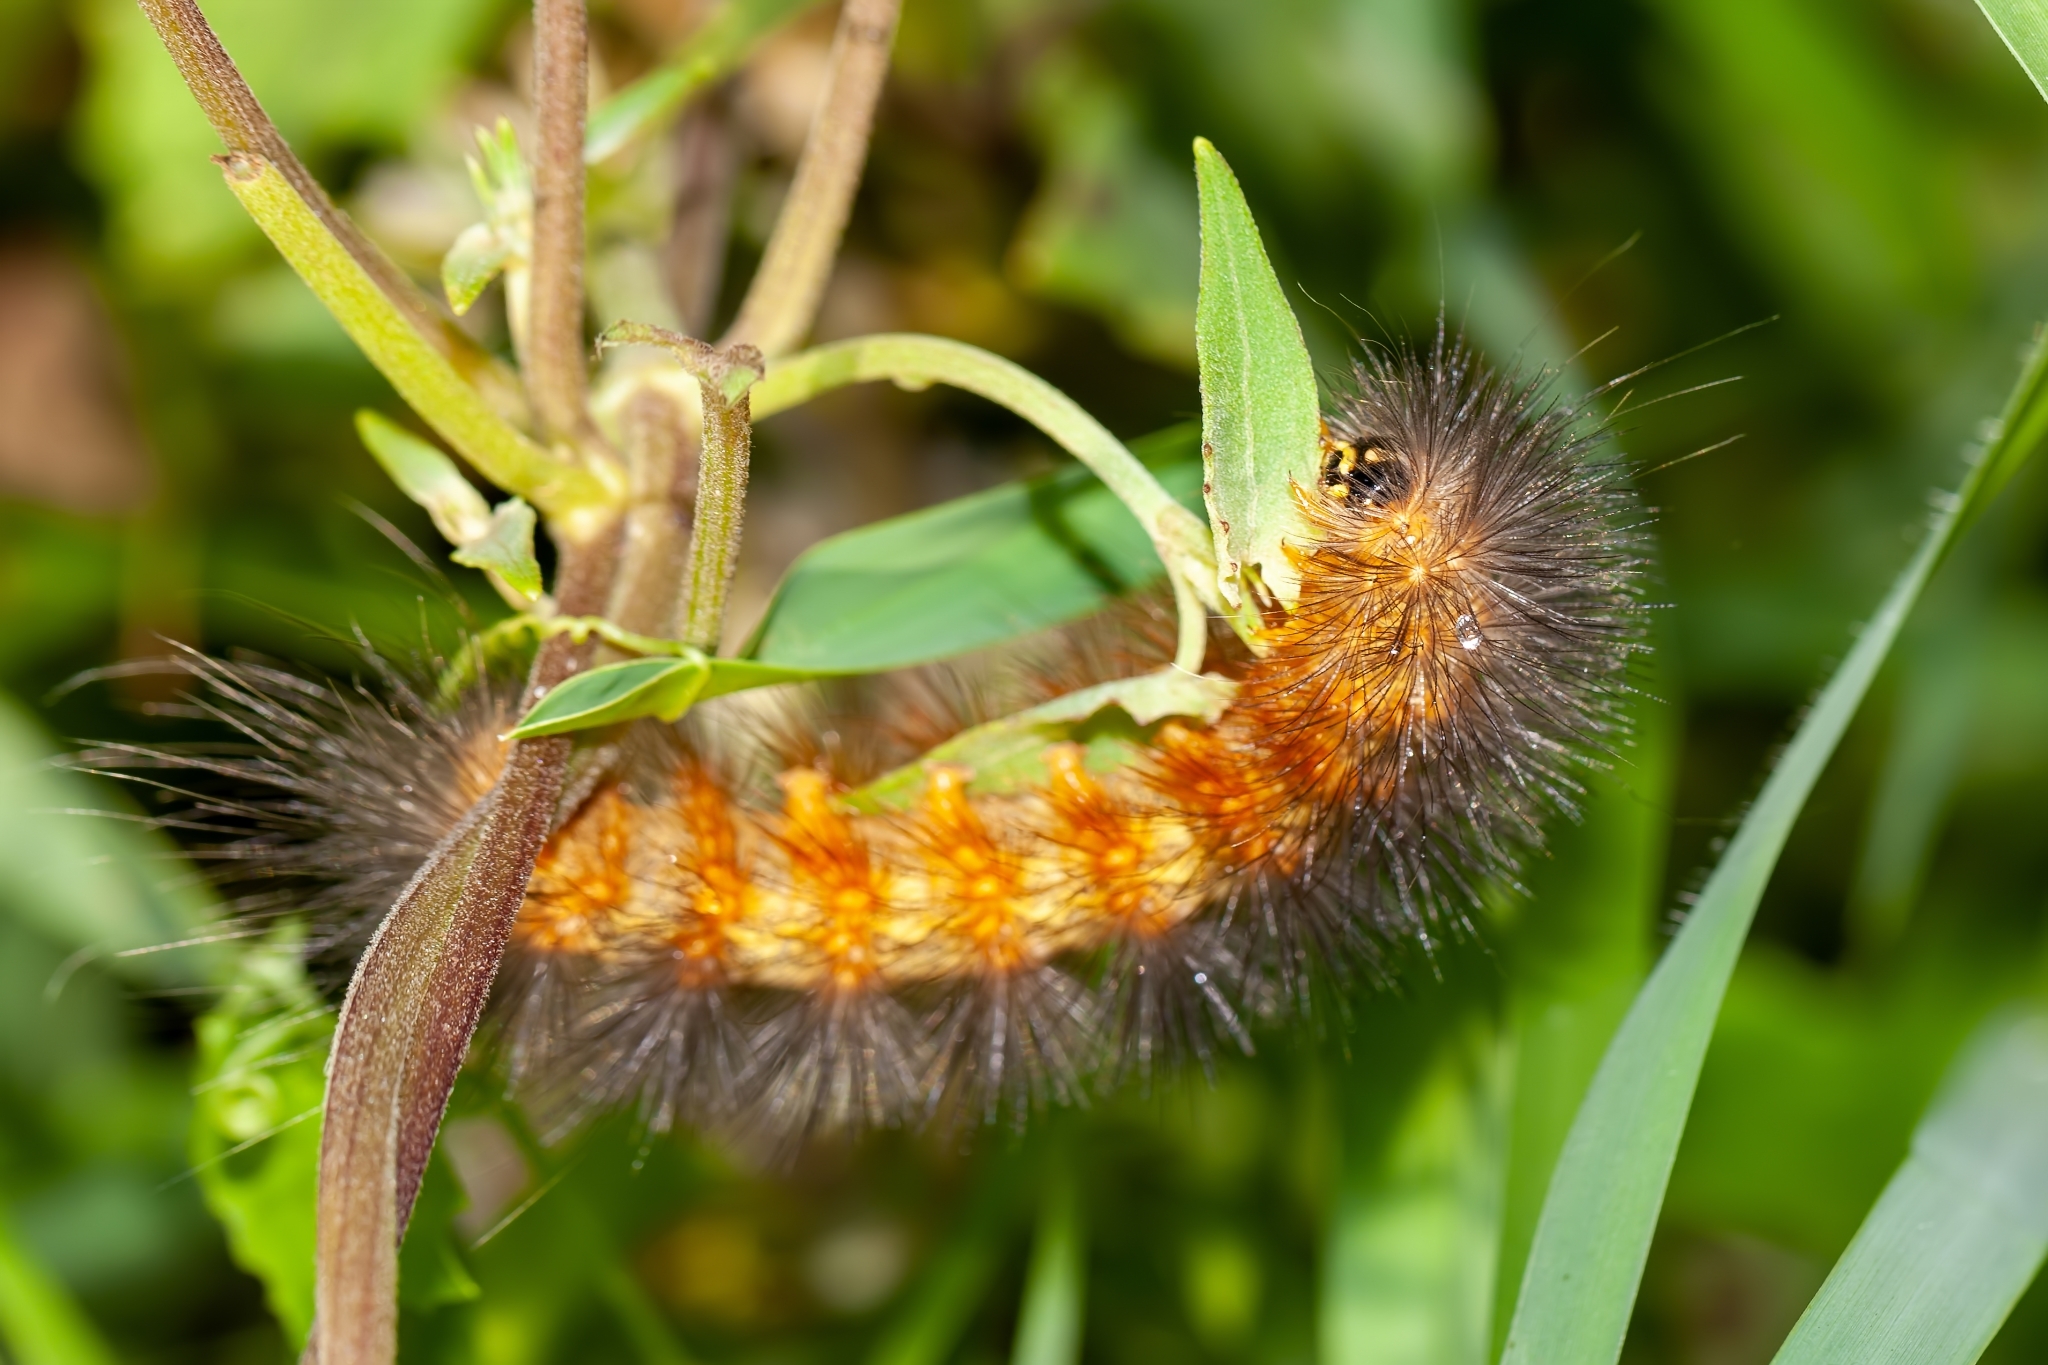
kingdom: Animalia
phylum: Arthropoda
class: Insecta
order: Lepidoptera
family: Erebidae
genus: Estigmene
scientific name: Estigmene acrea
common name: Salt marsh moth
